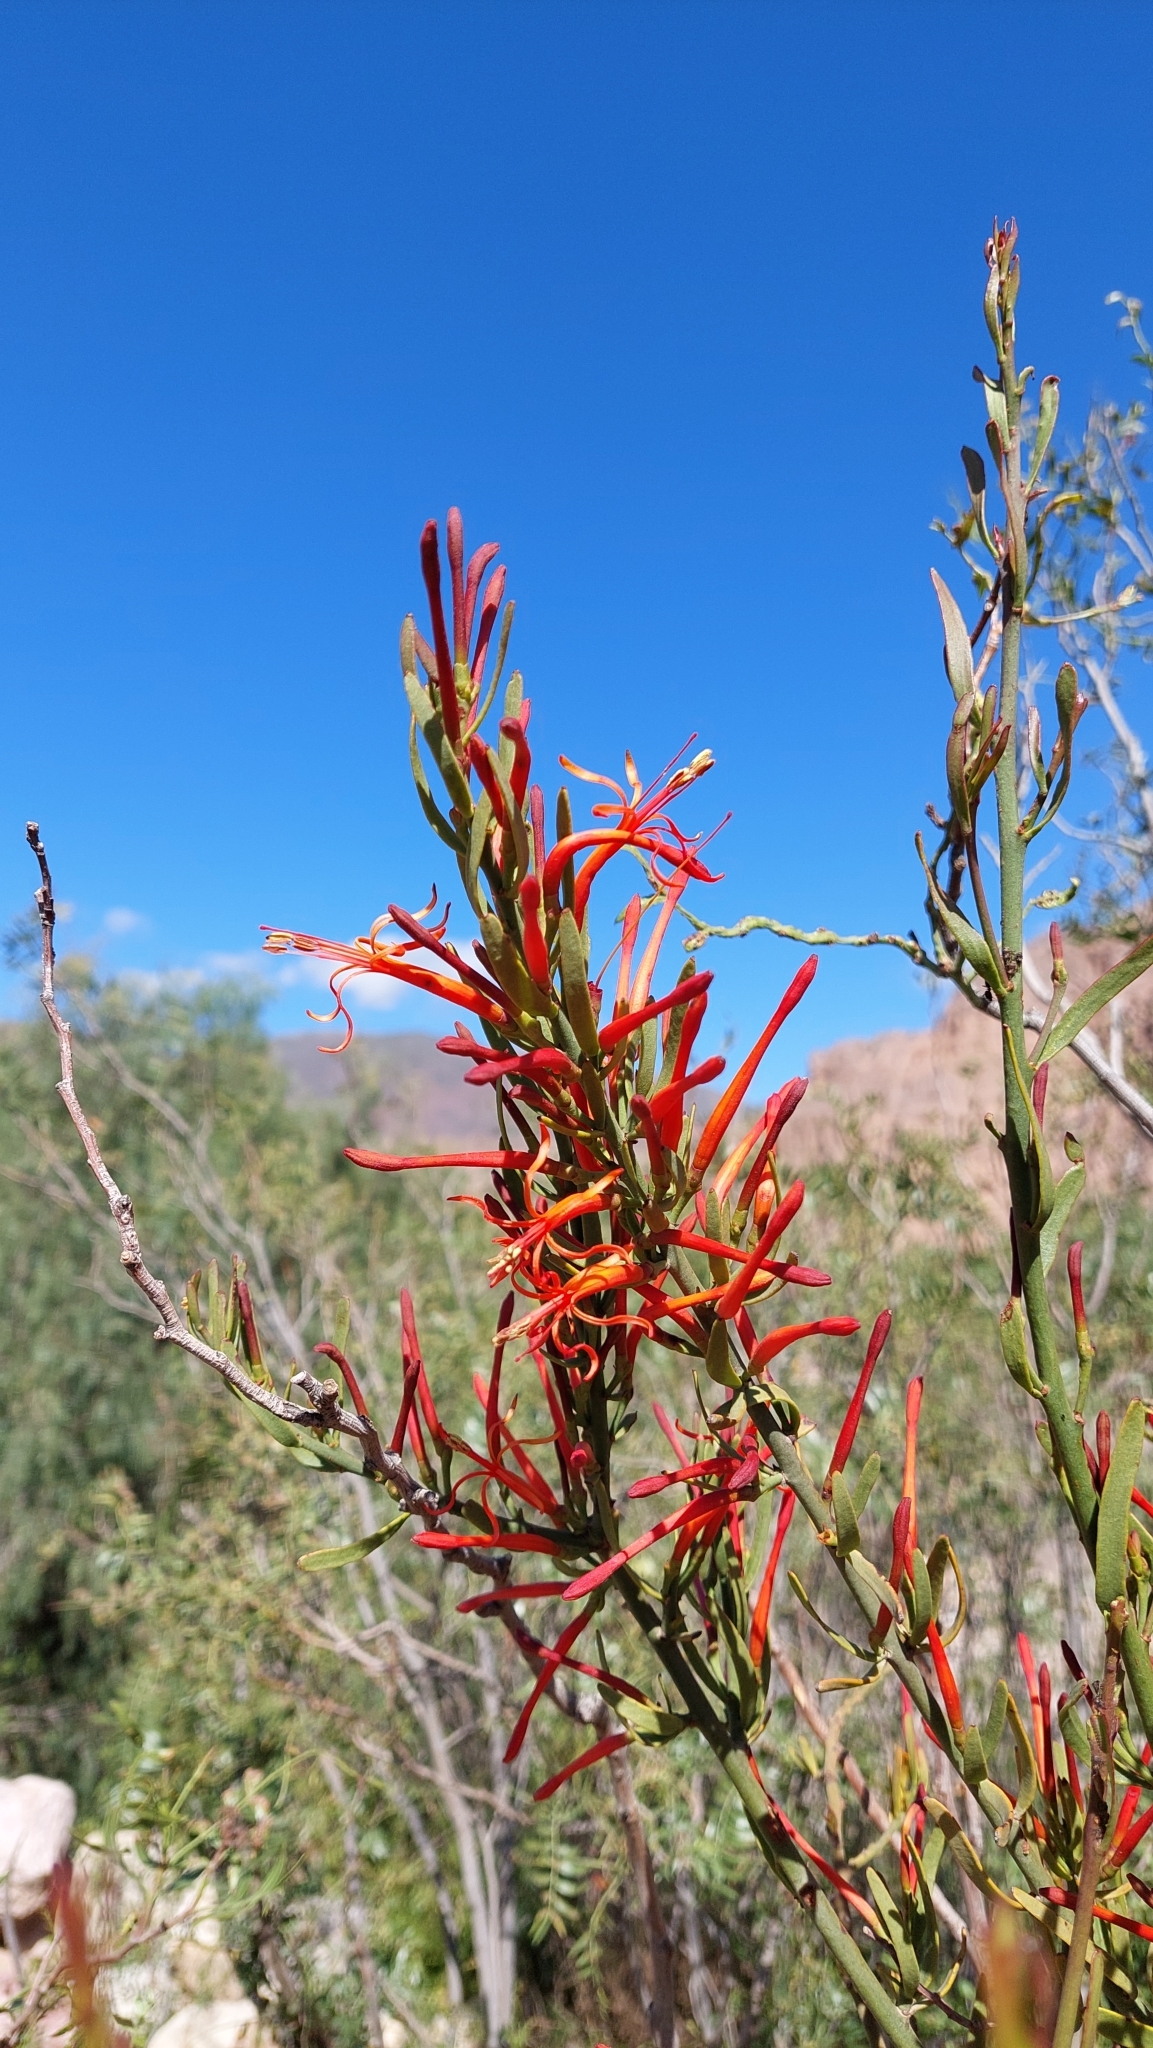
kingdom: Plantae
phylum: Tracheophyta
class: Magnoliopsida
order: Santalales
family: Loranthaceae
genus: Ligaria
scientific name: Ligaria cuneifolia
